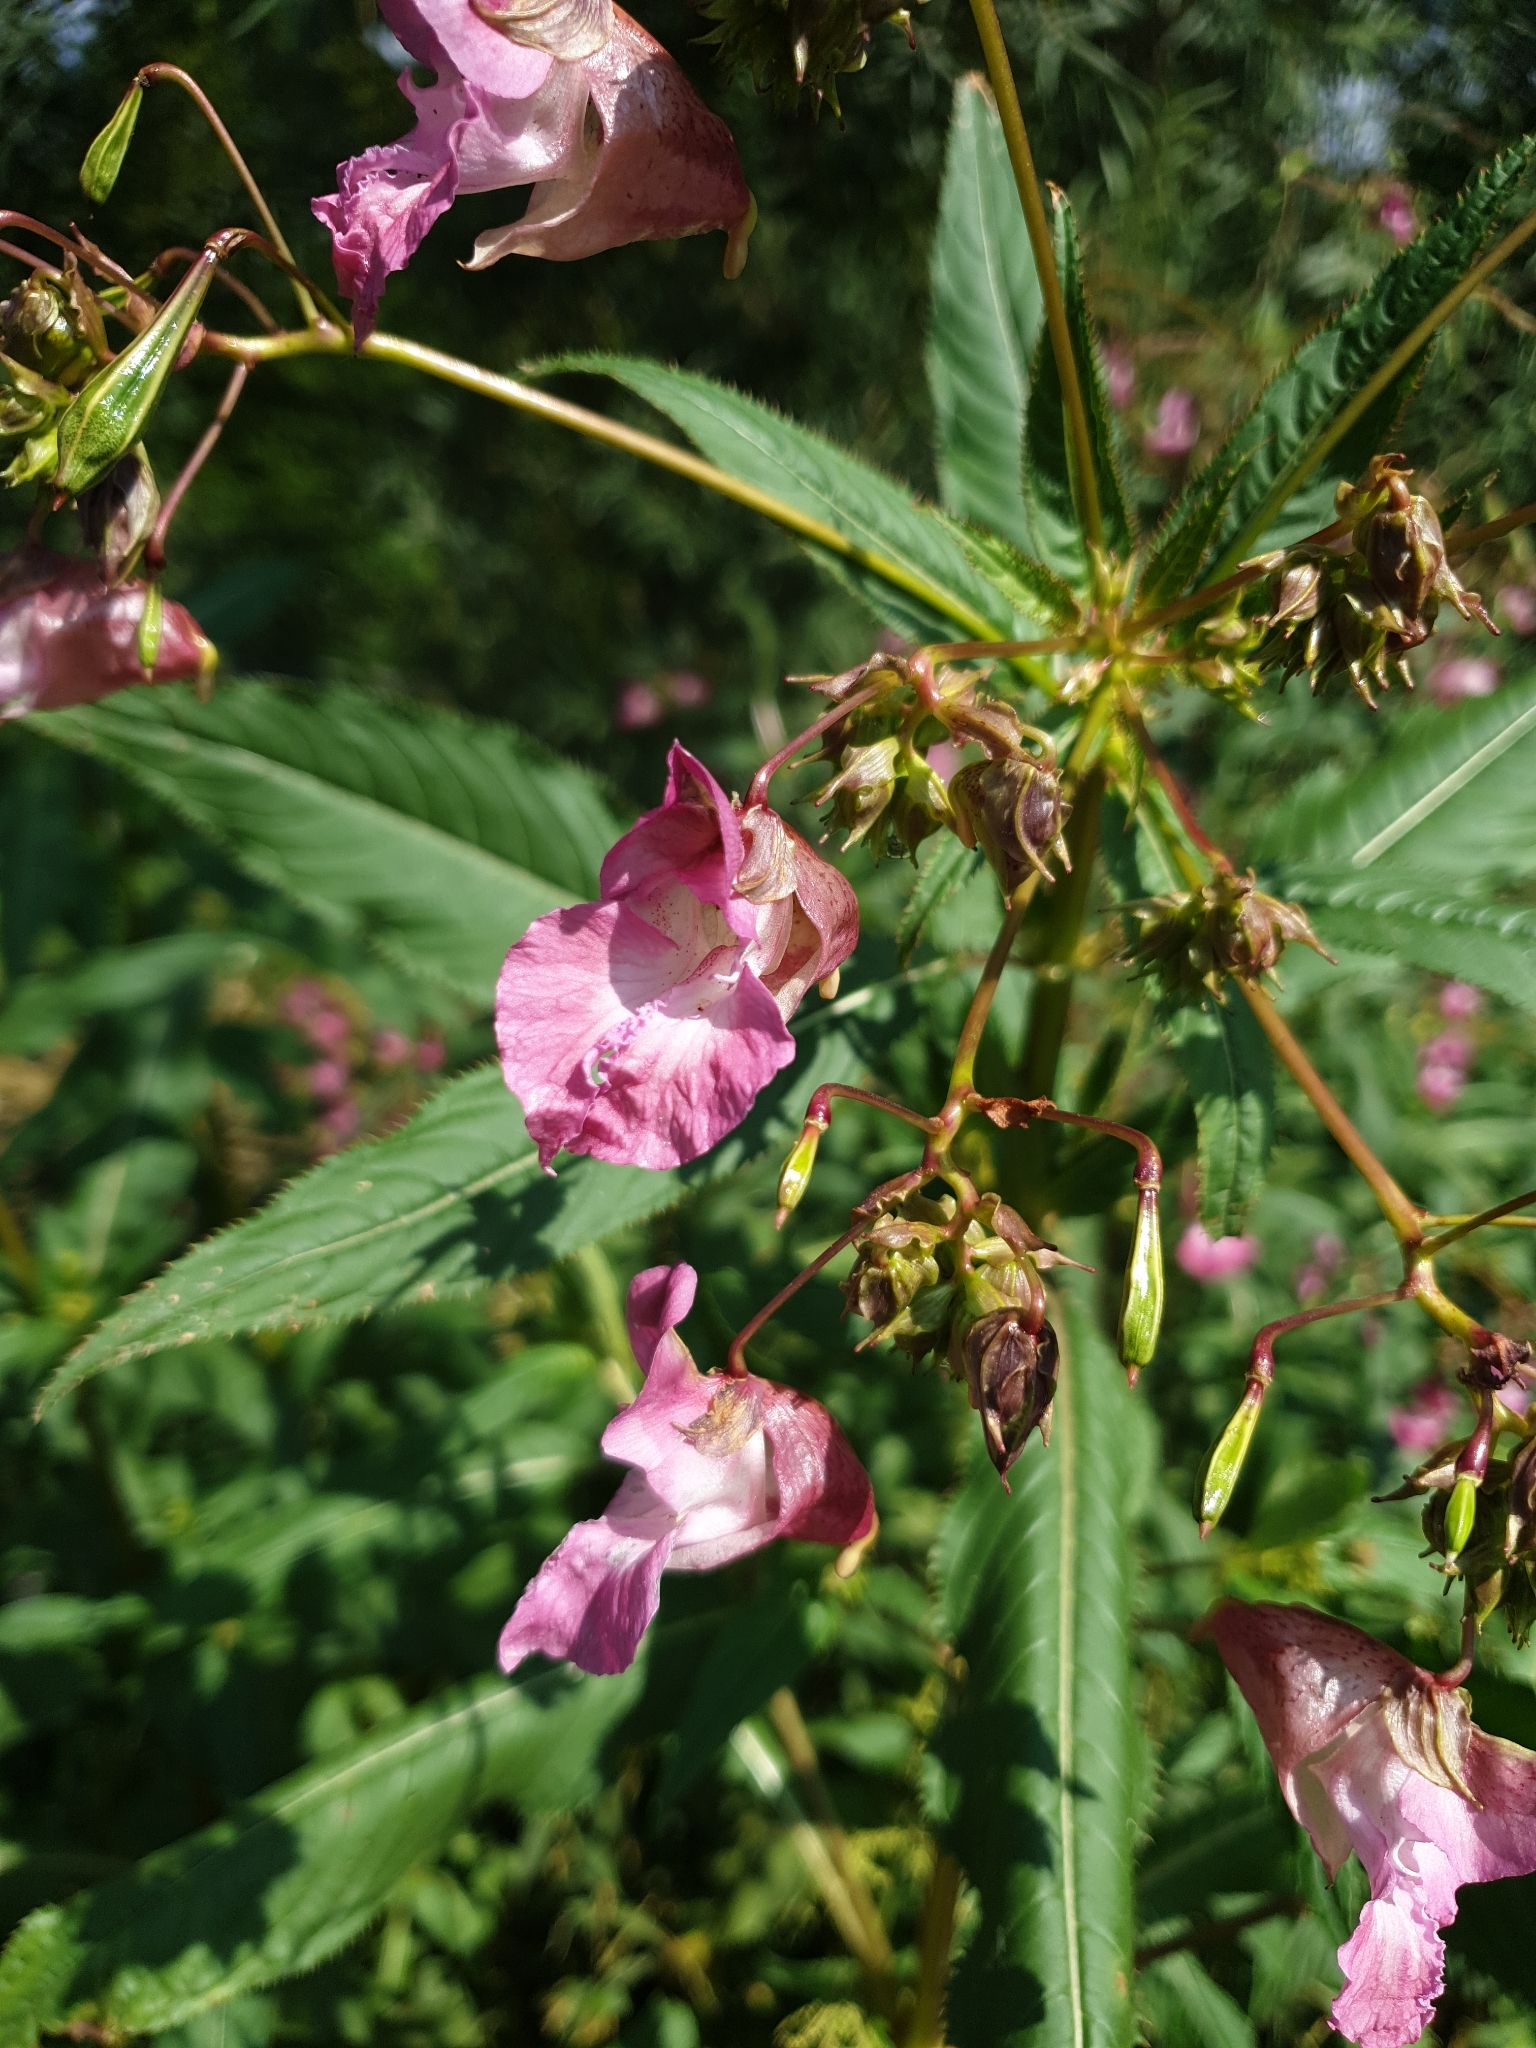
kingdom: Plantae
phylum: Tracheophyta
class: Magnoliopsida
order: Ericales
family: Balsaminaceae
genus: Impatiens
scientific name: Impatiens glandulifera
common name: Himalayan balsam
